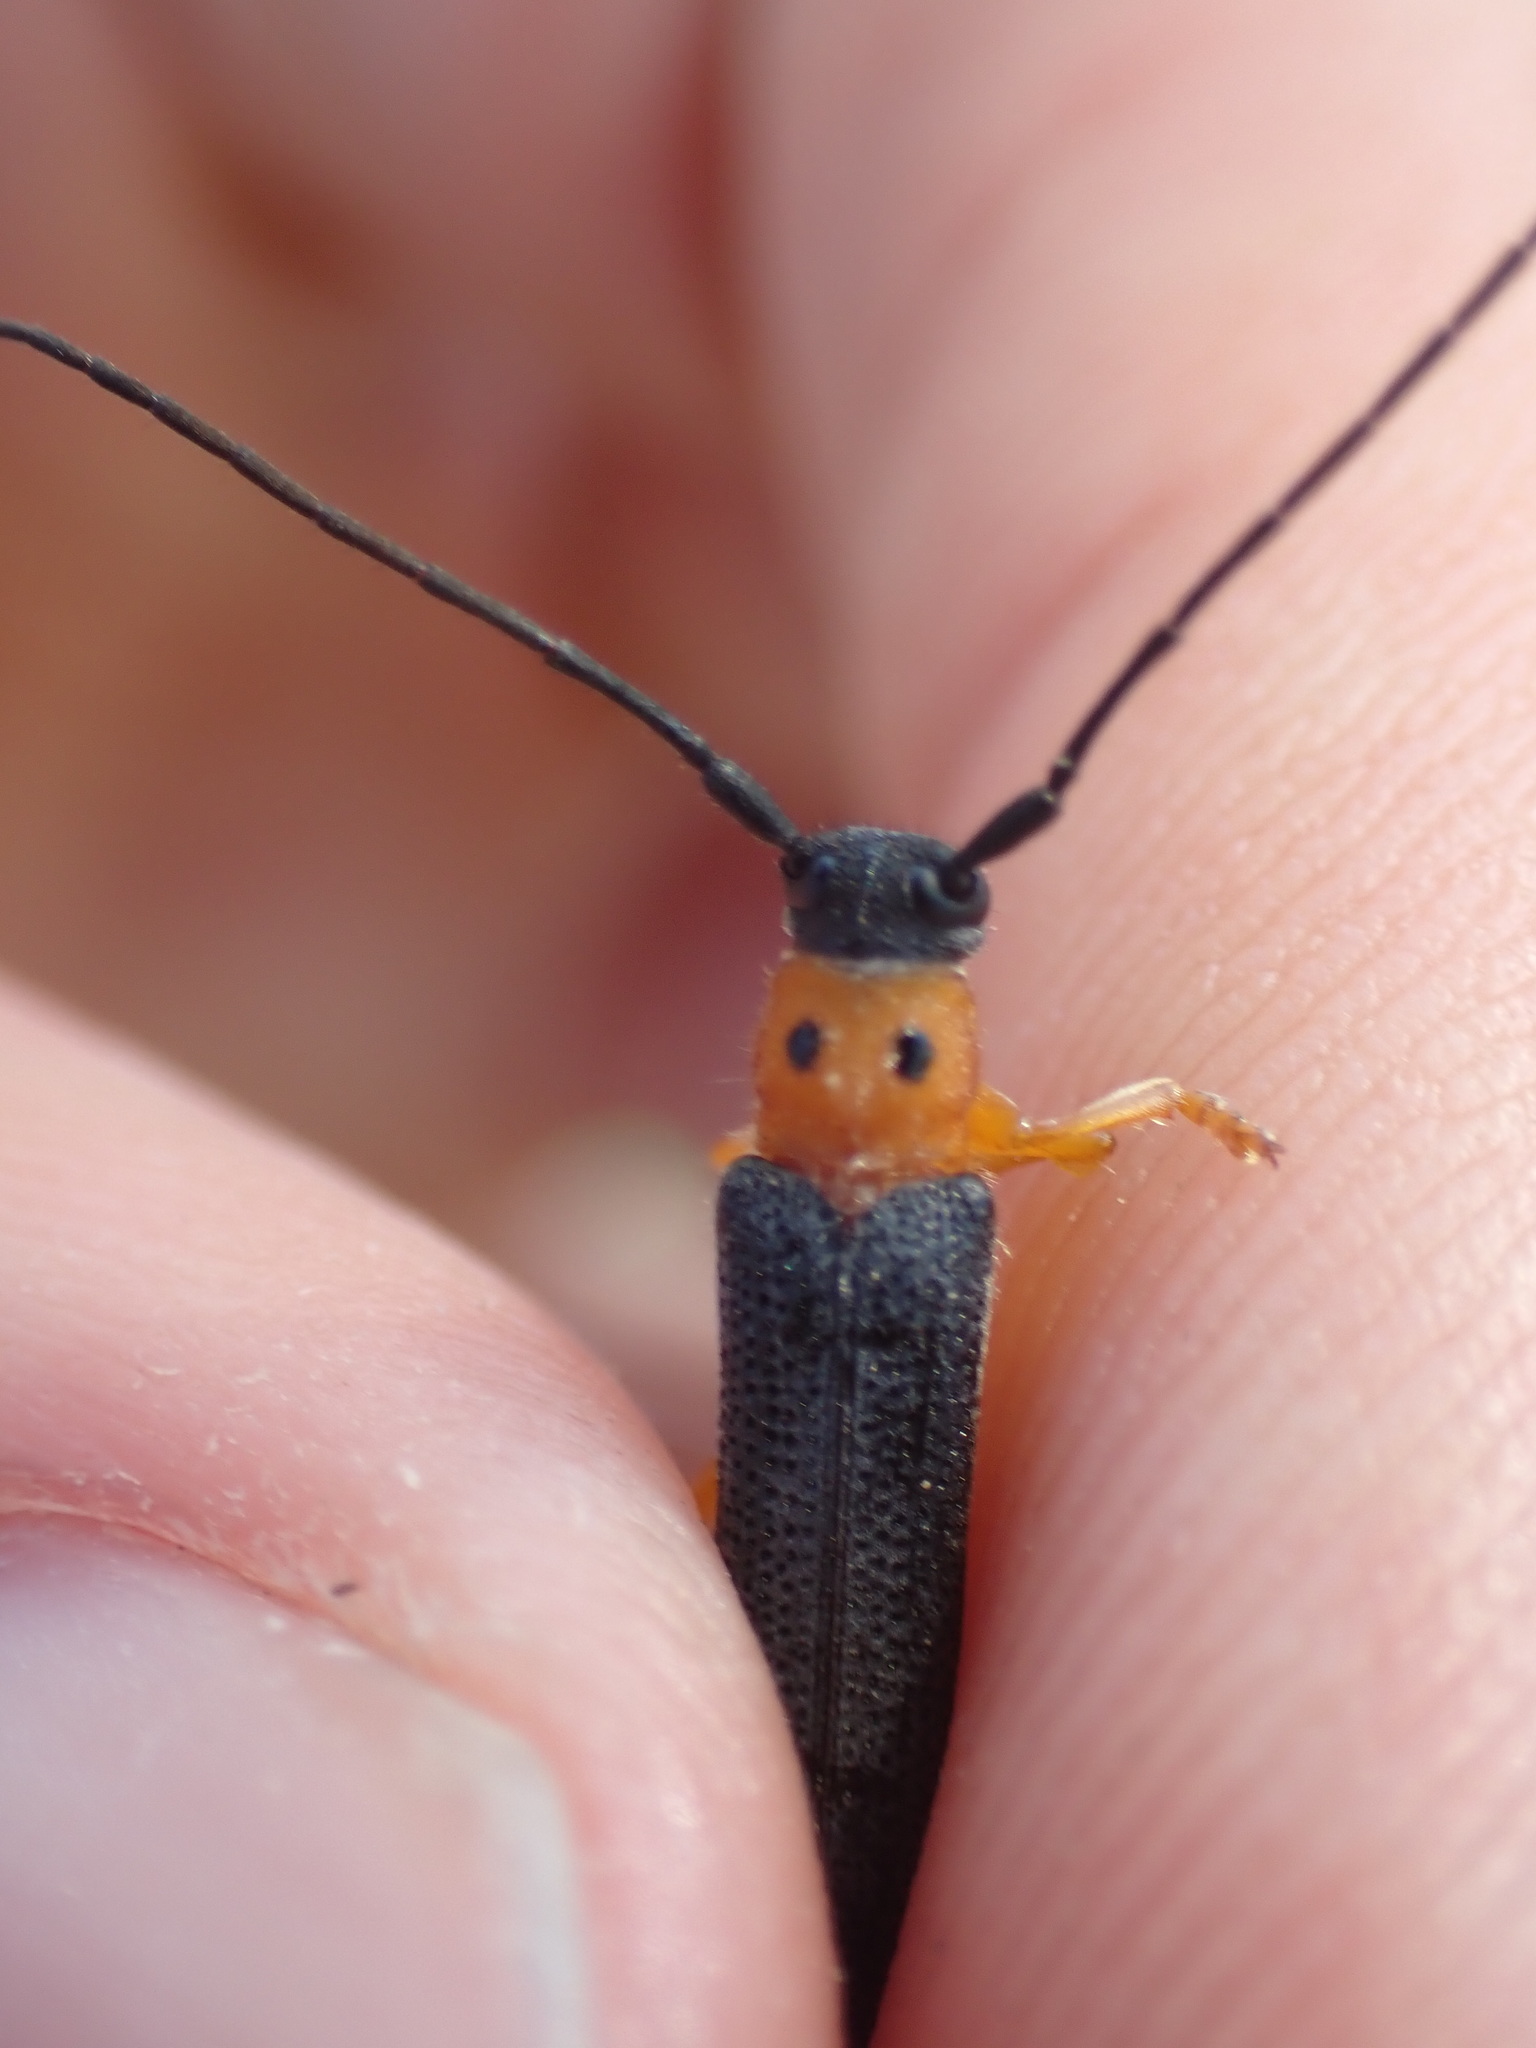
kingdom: Animalia
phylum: Arthropoda
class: Insecta
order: Coleoptera
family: Cerambycidae
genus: Oberea
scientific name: Oberea oculata
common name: Eyed longhorn beetle
